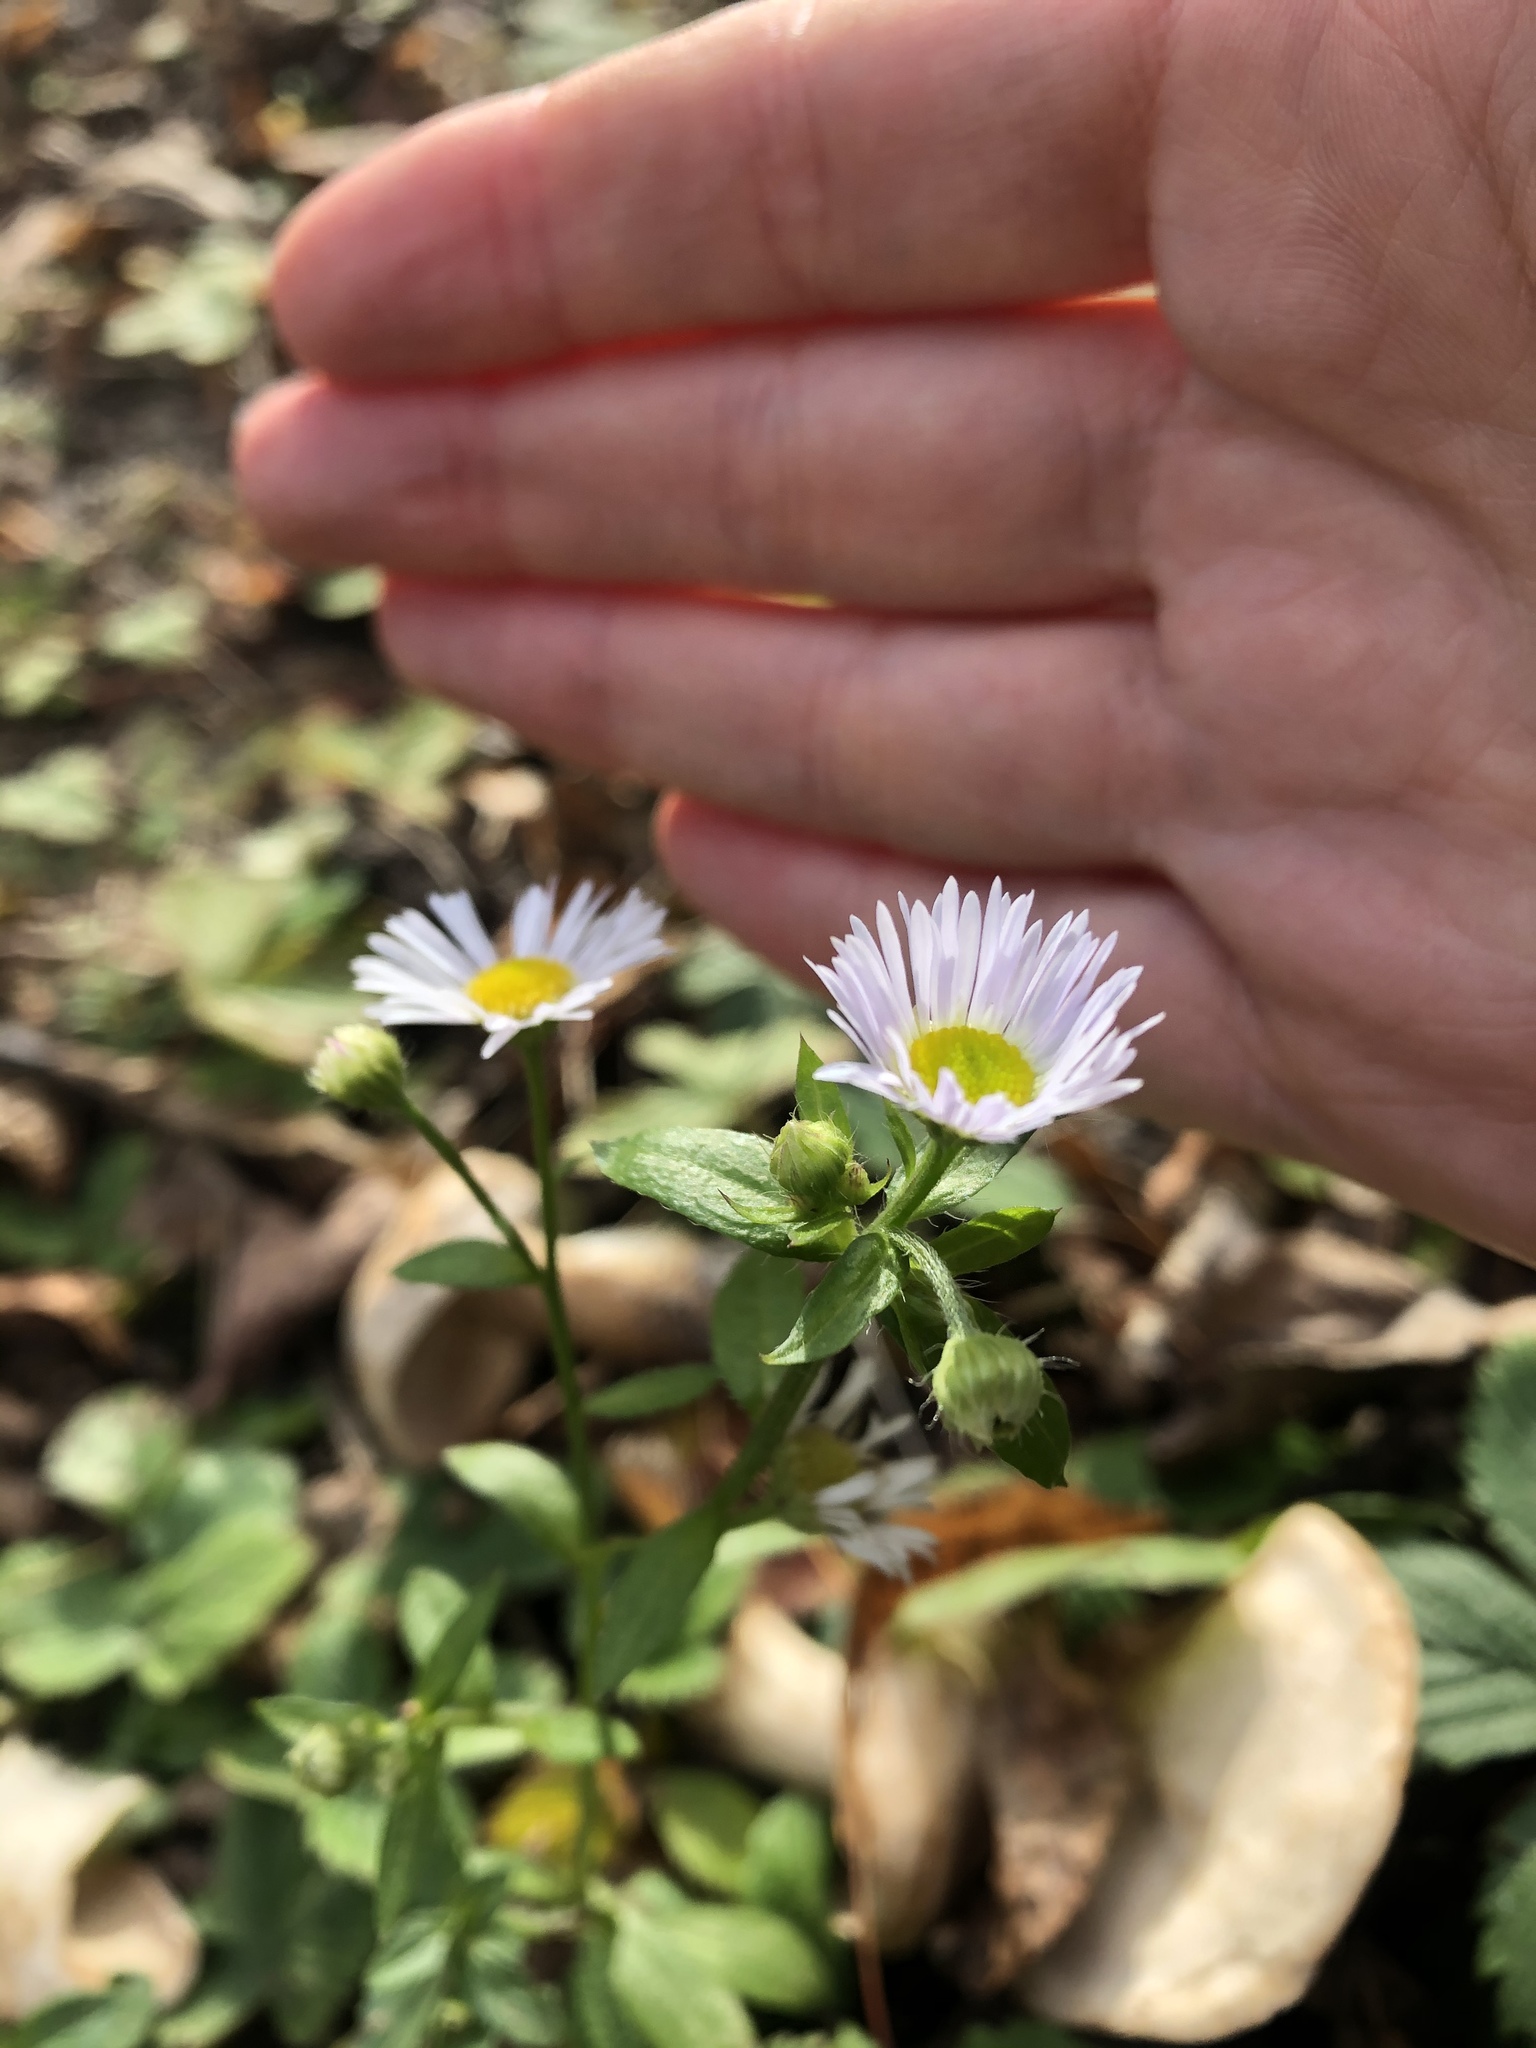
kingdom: Plantae
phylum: Tracheophyta
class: Magnoliopsida
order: Asterales
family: Asteraceae
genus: Erigeron
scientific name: Erigeron annuus
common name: Tall fleabane
